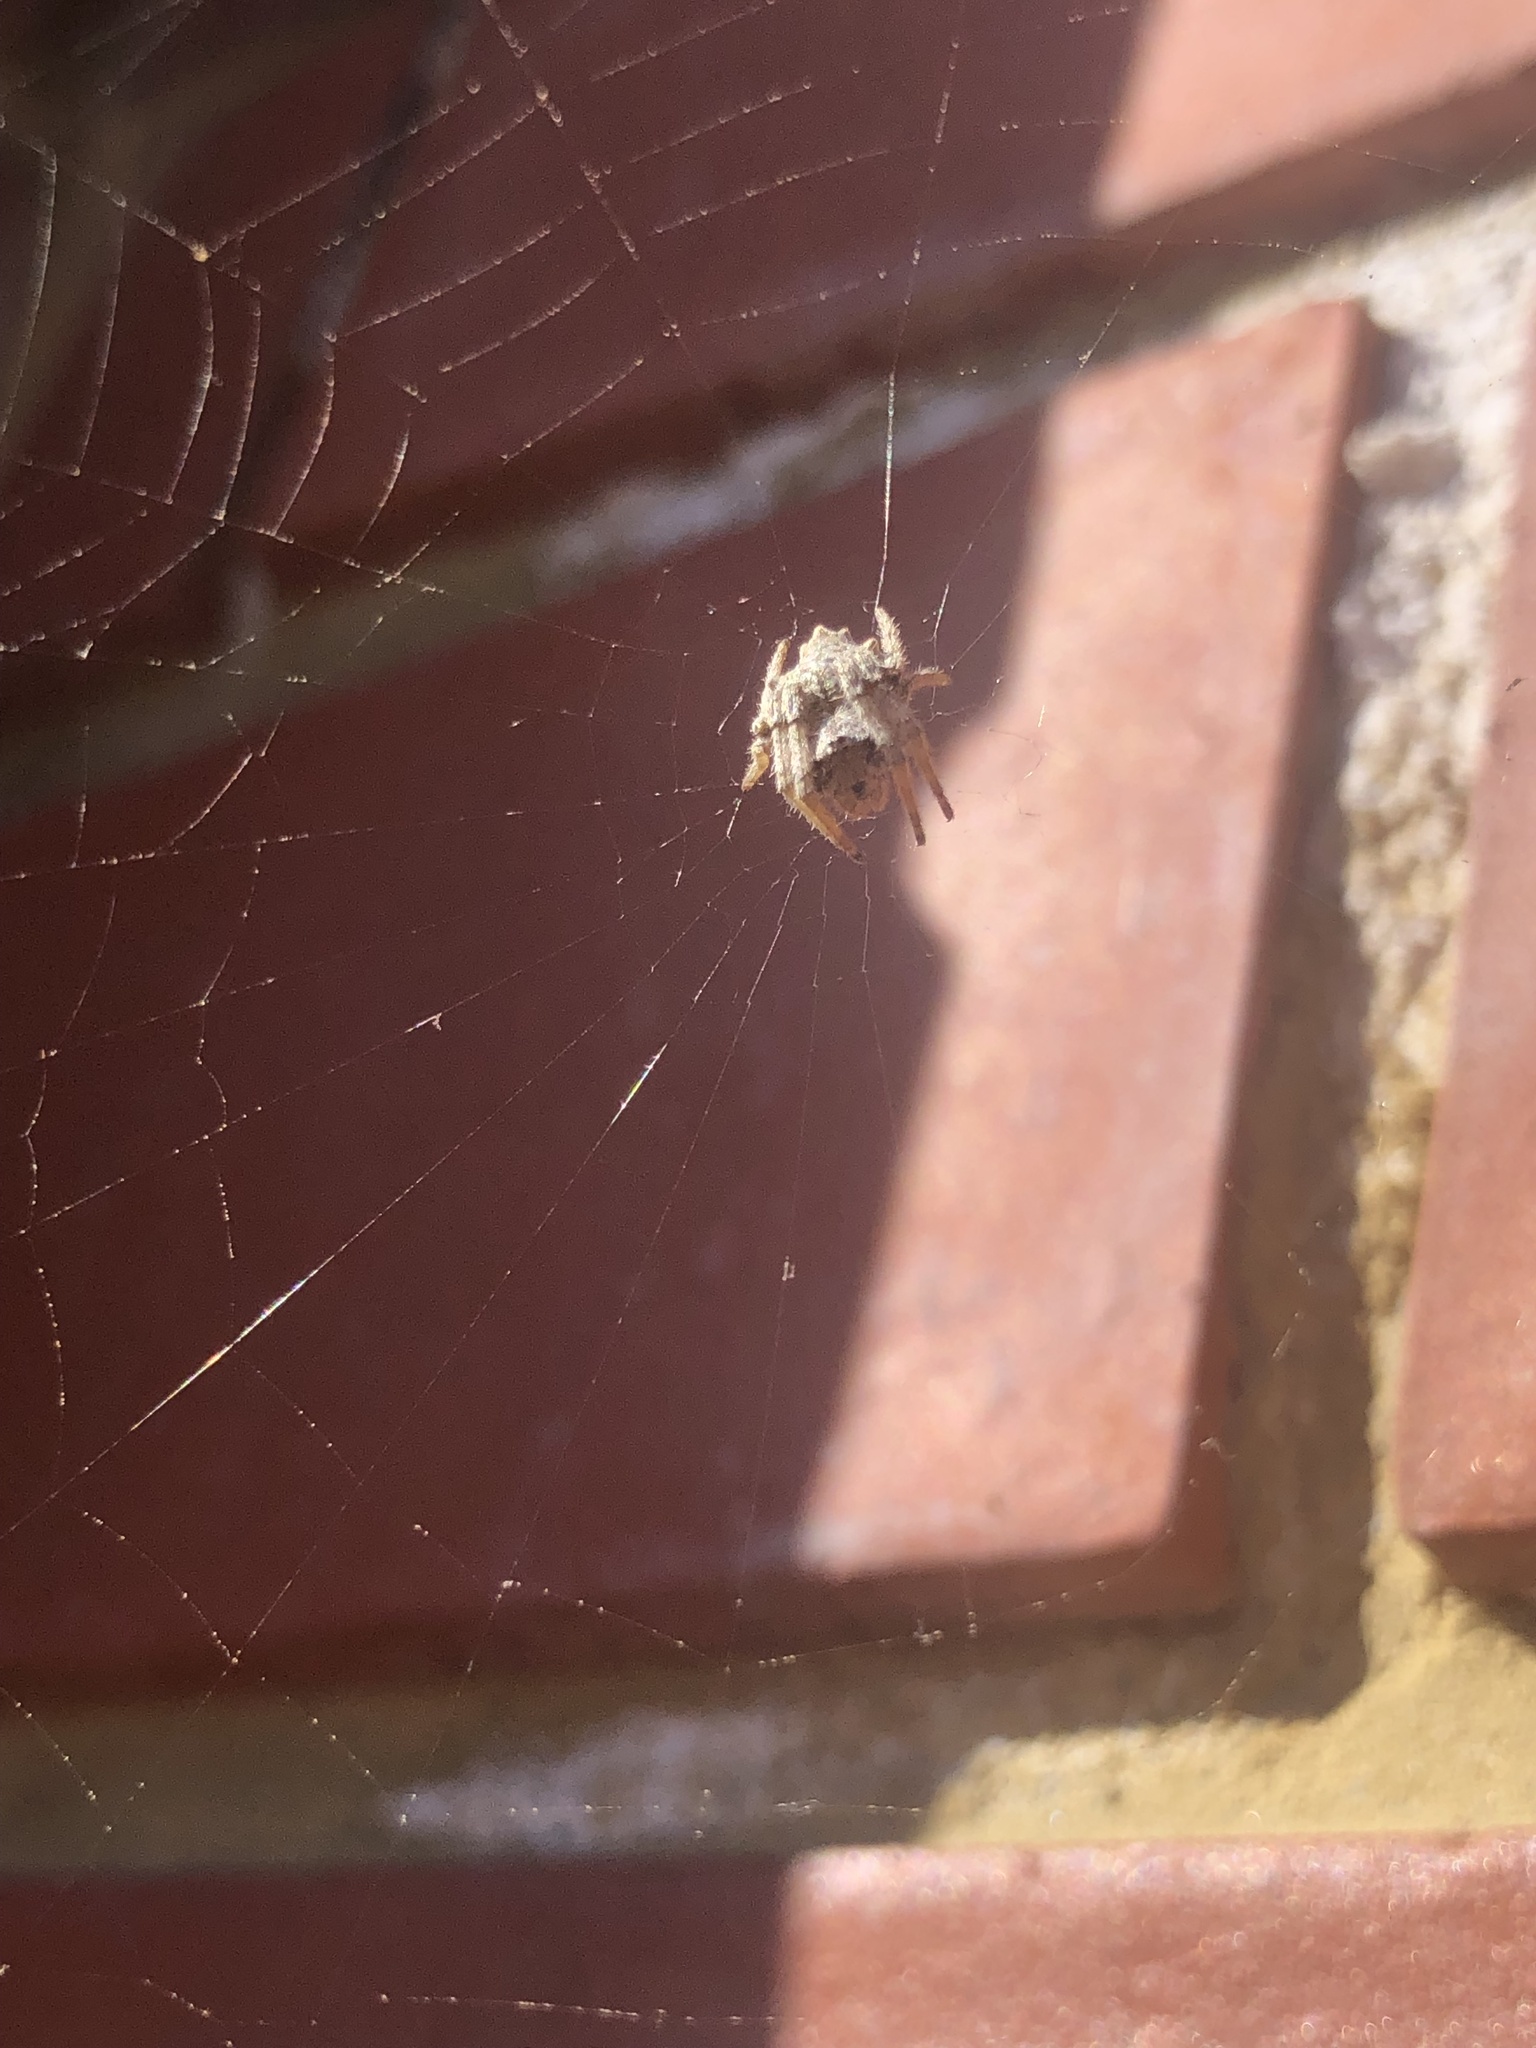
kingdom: Animalia
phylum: Arthropoda
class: Arachnida
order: Araneae
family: Araneidae
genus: Eriophora
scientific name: Eriophora pustulosa
